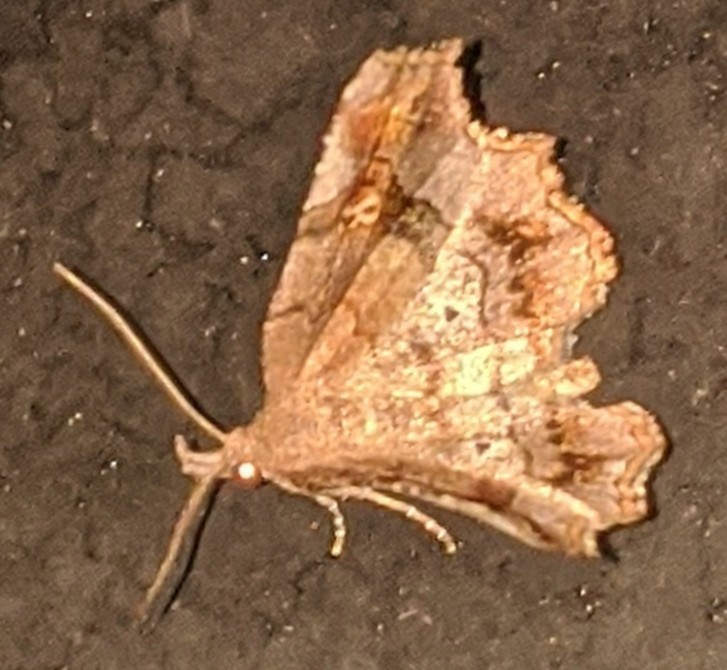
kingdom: Animalia
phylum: Arthropoda
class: Insecta
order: Lepidoptera
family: Erebidae
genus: Pangrapta
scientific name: Pangrapta decoralis
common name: Decorated owlet
